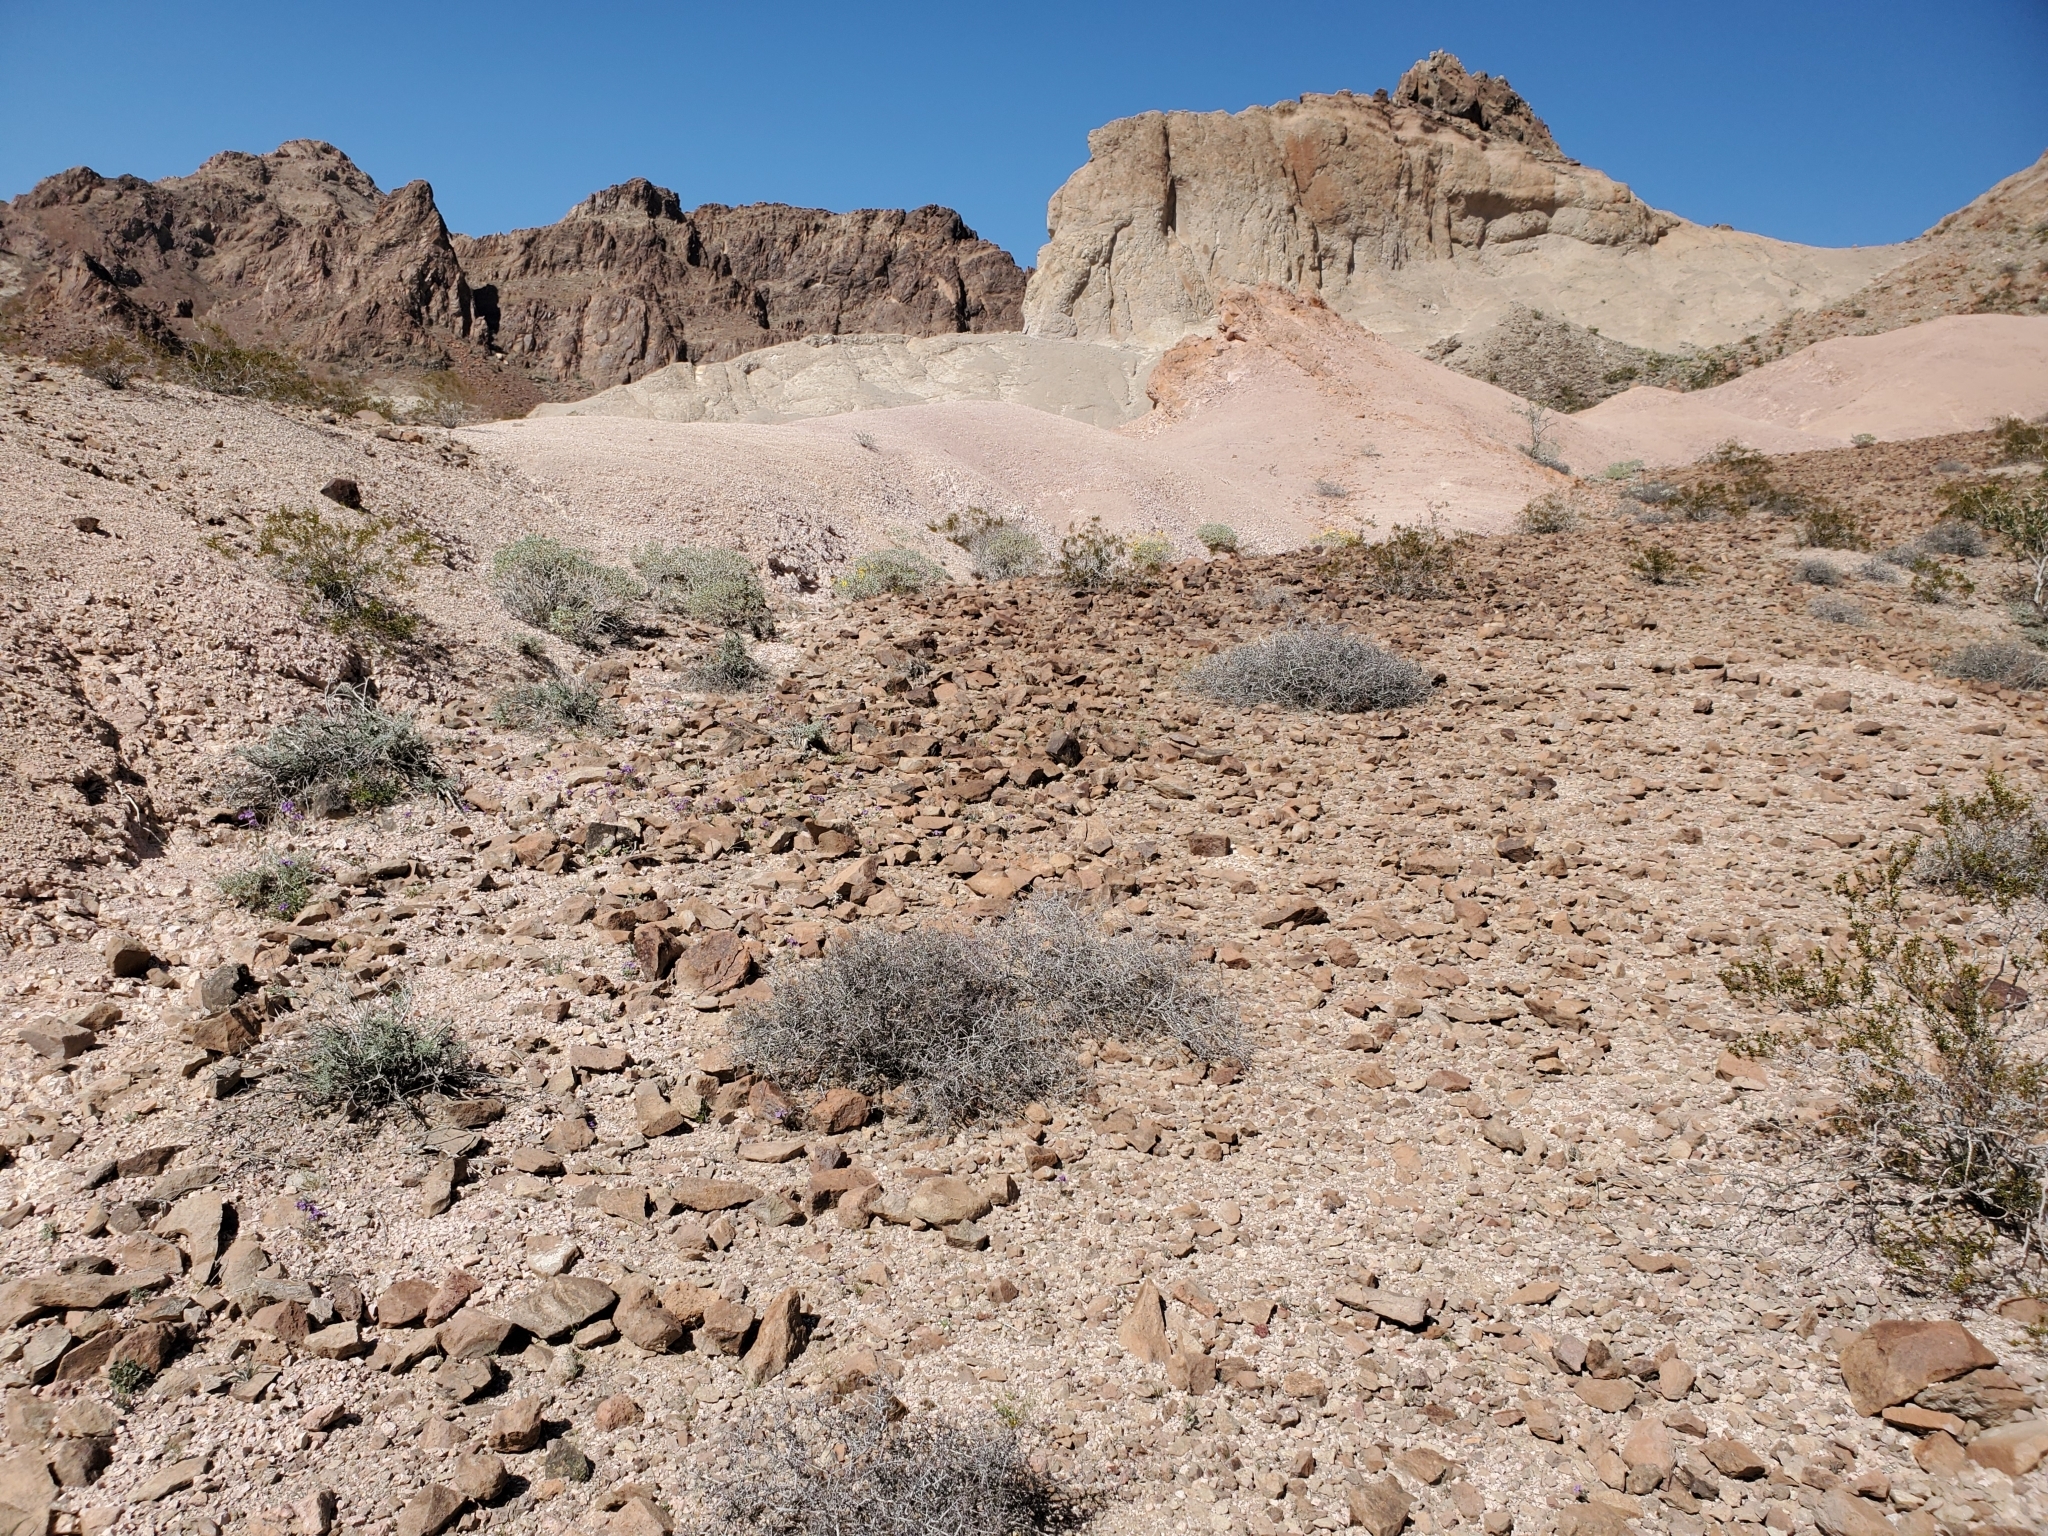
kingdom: Plantae
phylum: Tracheophyta
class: Magnoliopsida
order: Zygophyllales
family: Krameriaceae
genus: Krameria
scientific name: Krameria erecta
